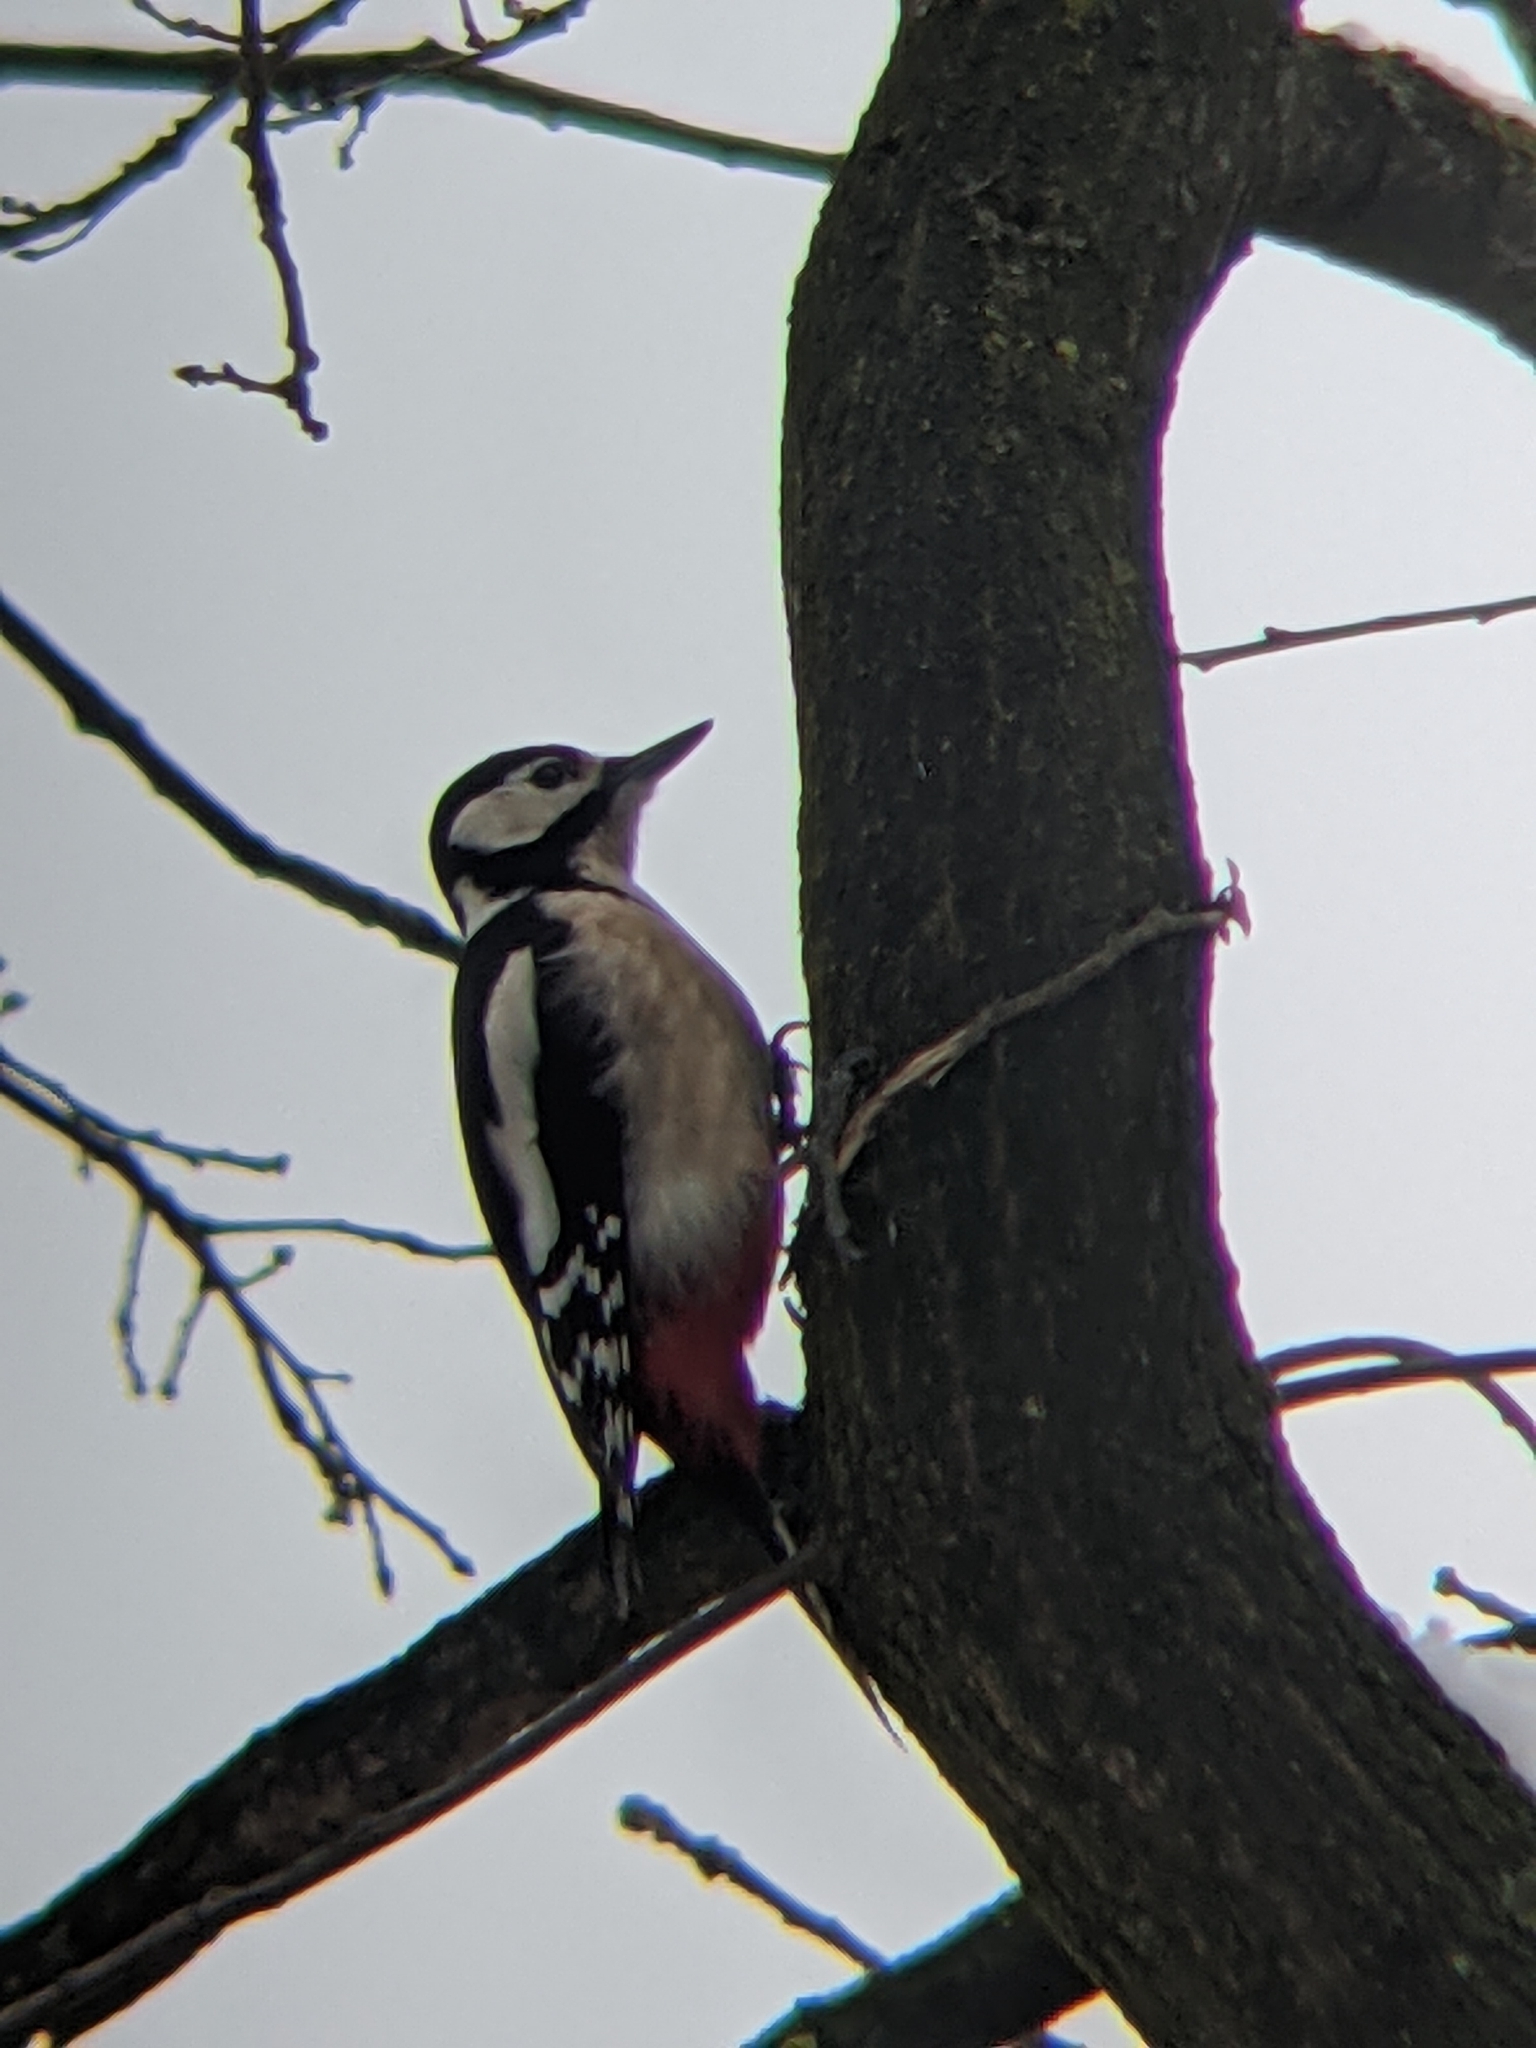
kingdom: Animalia
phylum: Chordata
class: Aves
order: Piciformes
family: Picidae
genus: Dendrocopos
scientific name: Dendrocopos major
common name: Great spotted woodpecker
